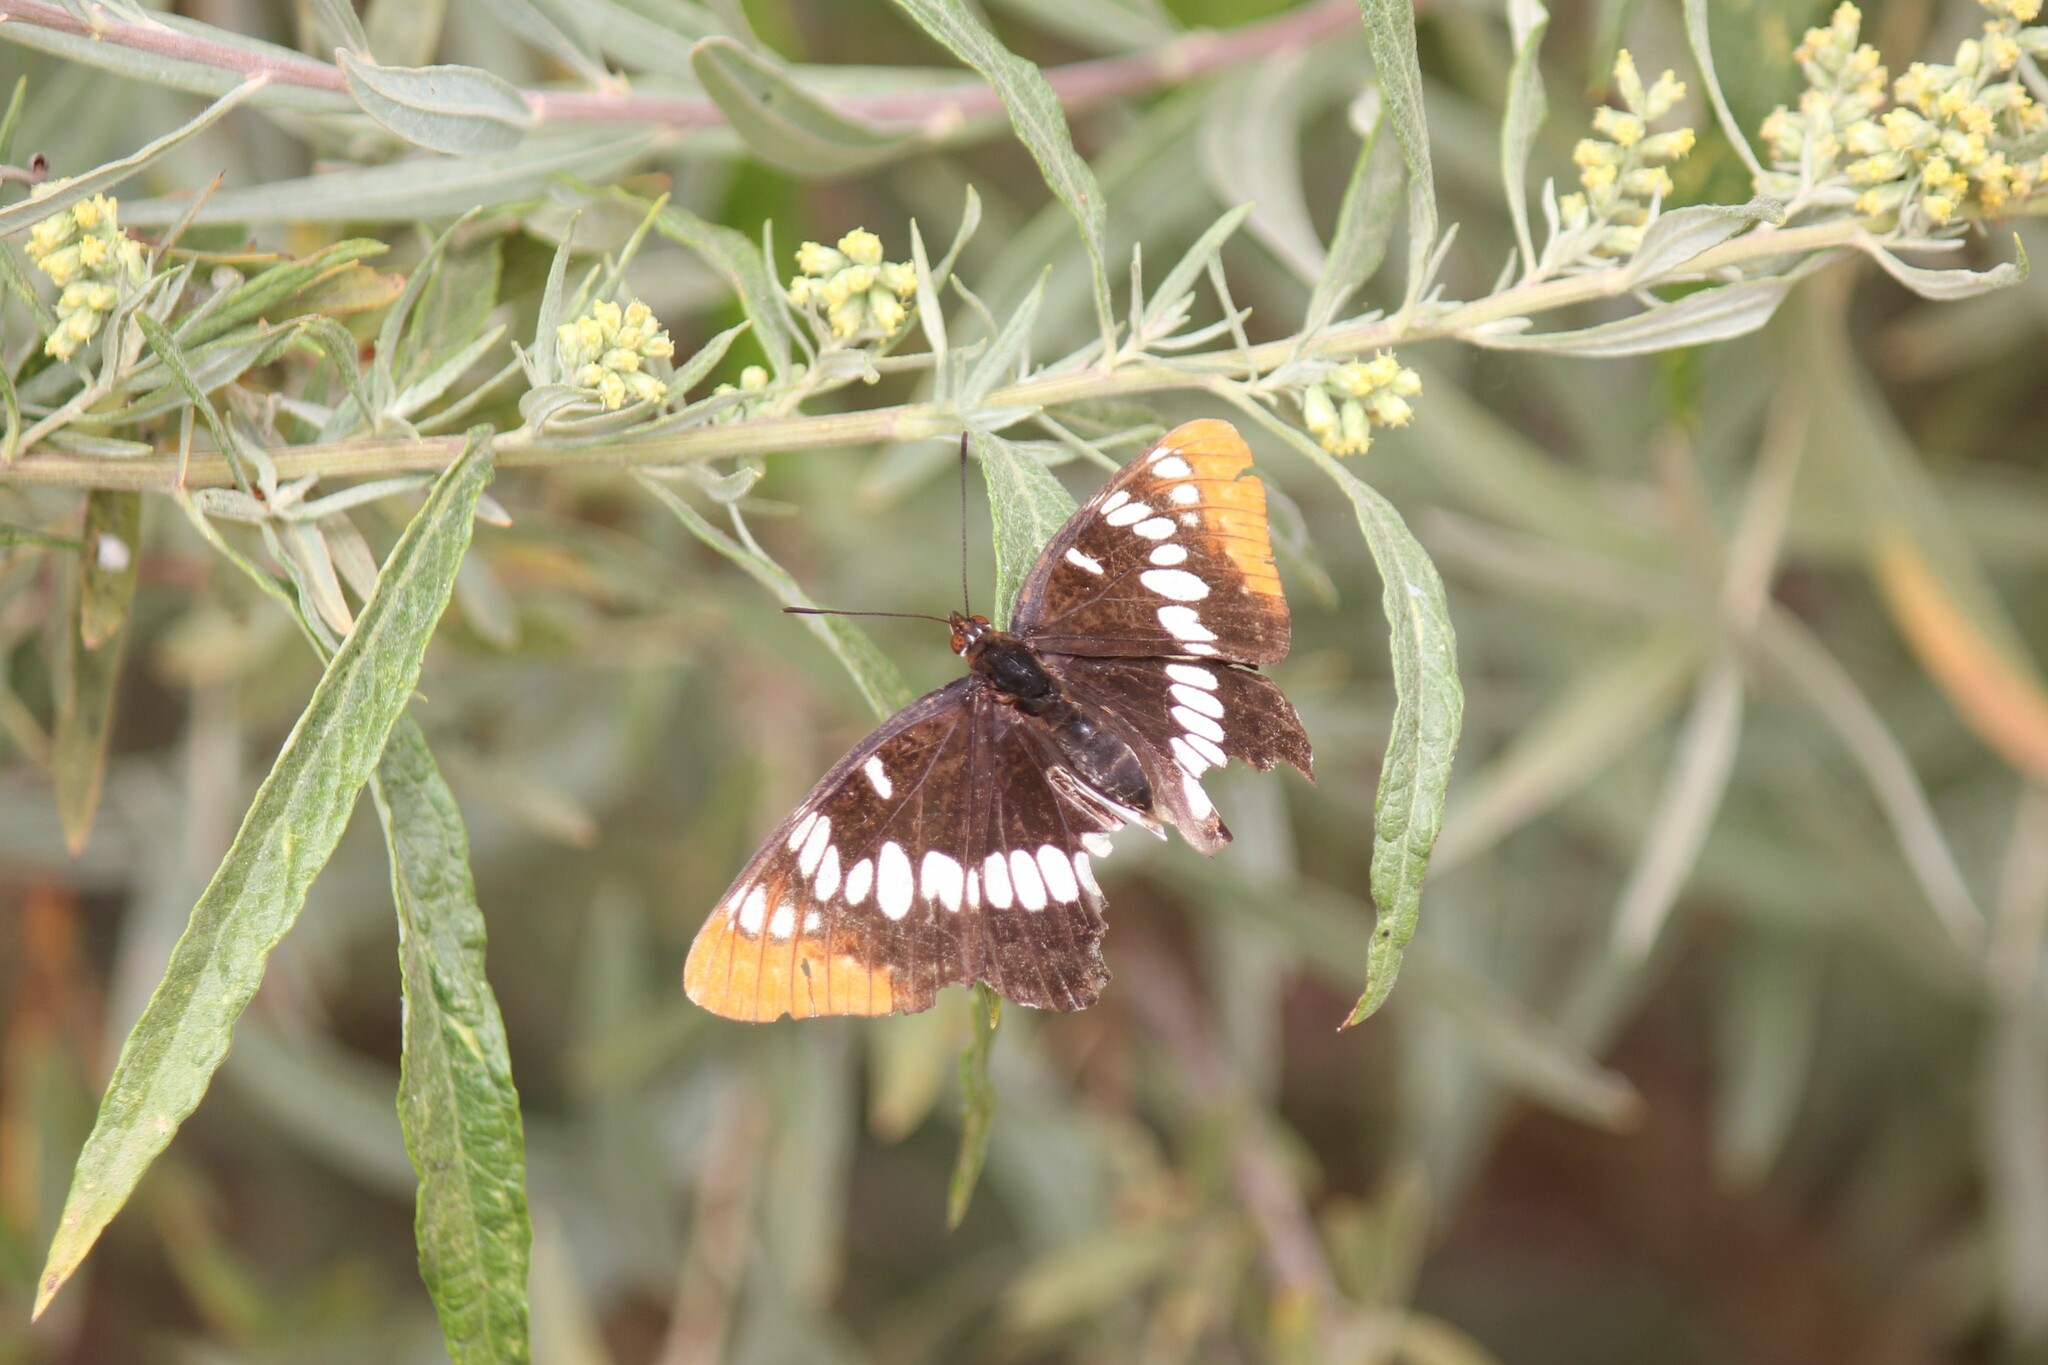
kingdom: Animalia
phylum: Arthropoda
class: Insecta
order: Lepidoptera
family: Nymphalidae
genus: Limenitis
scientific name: Limenitis lorquini
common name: Lorquin's admiral
